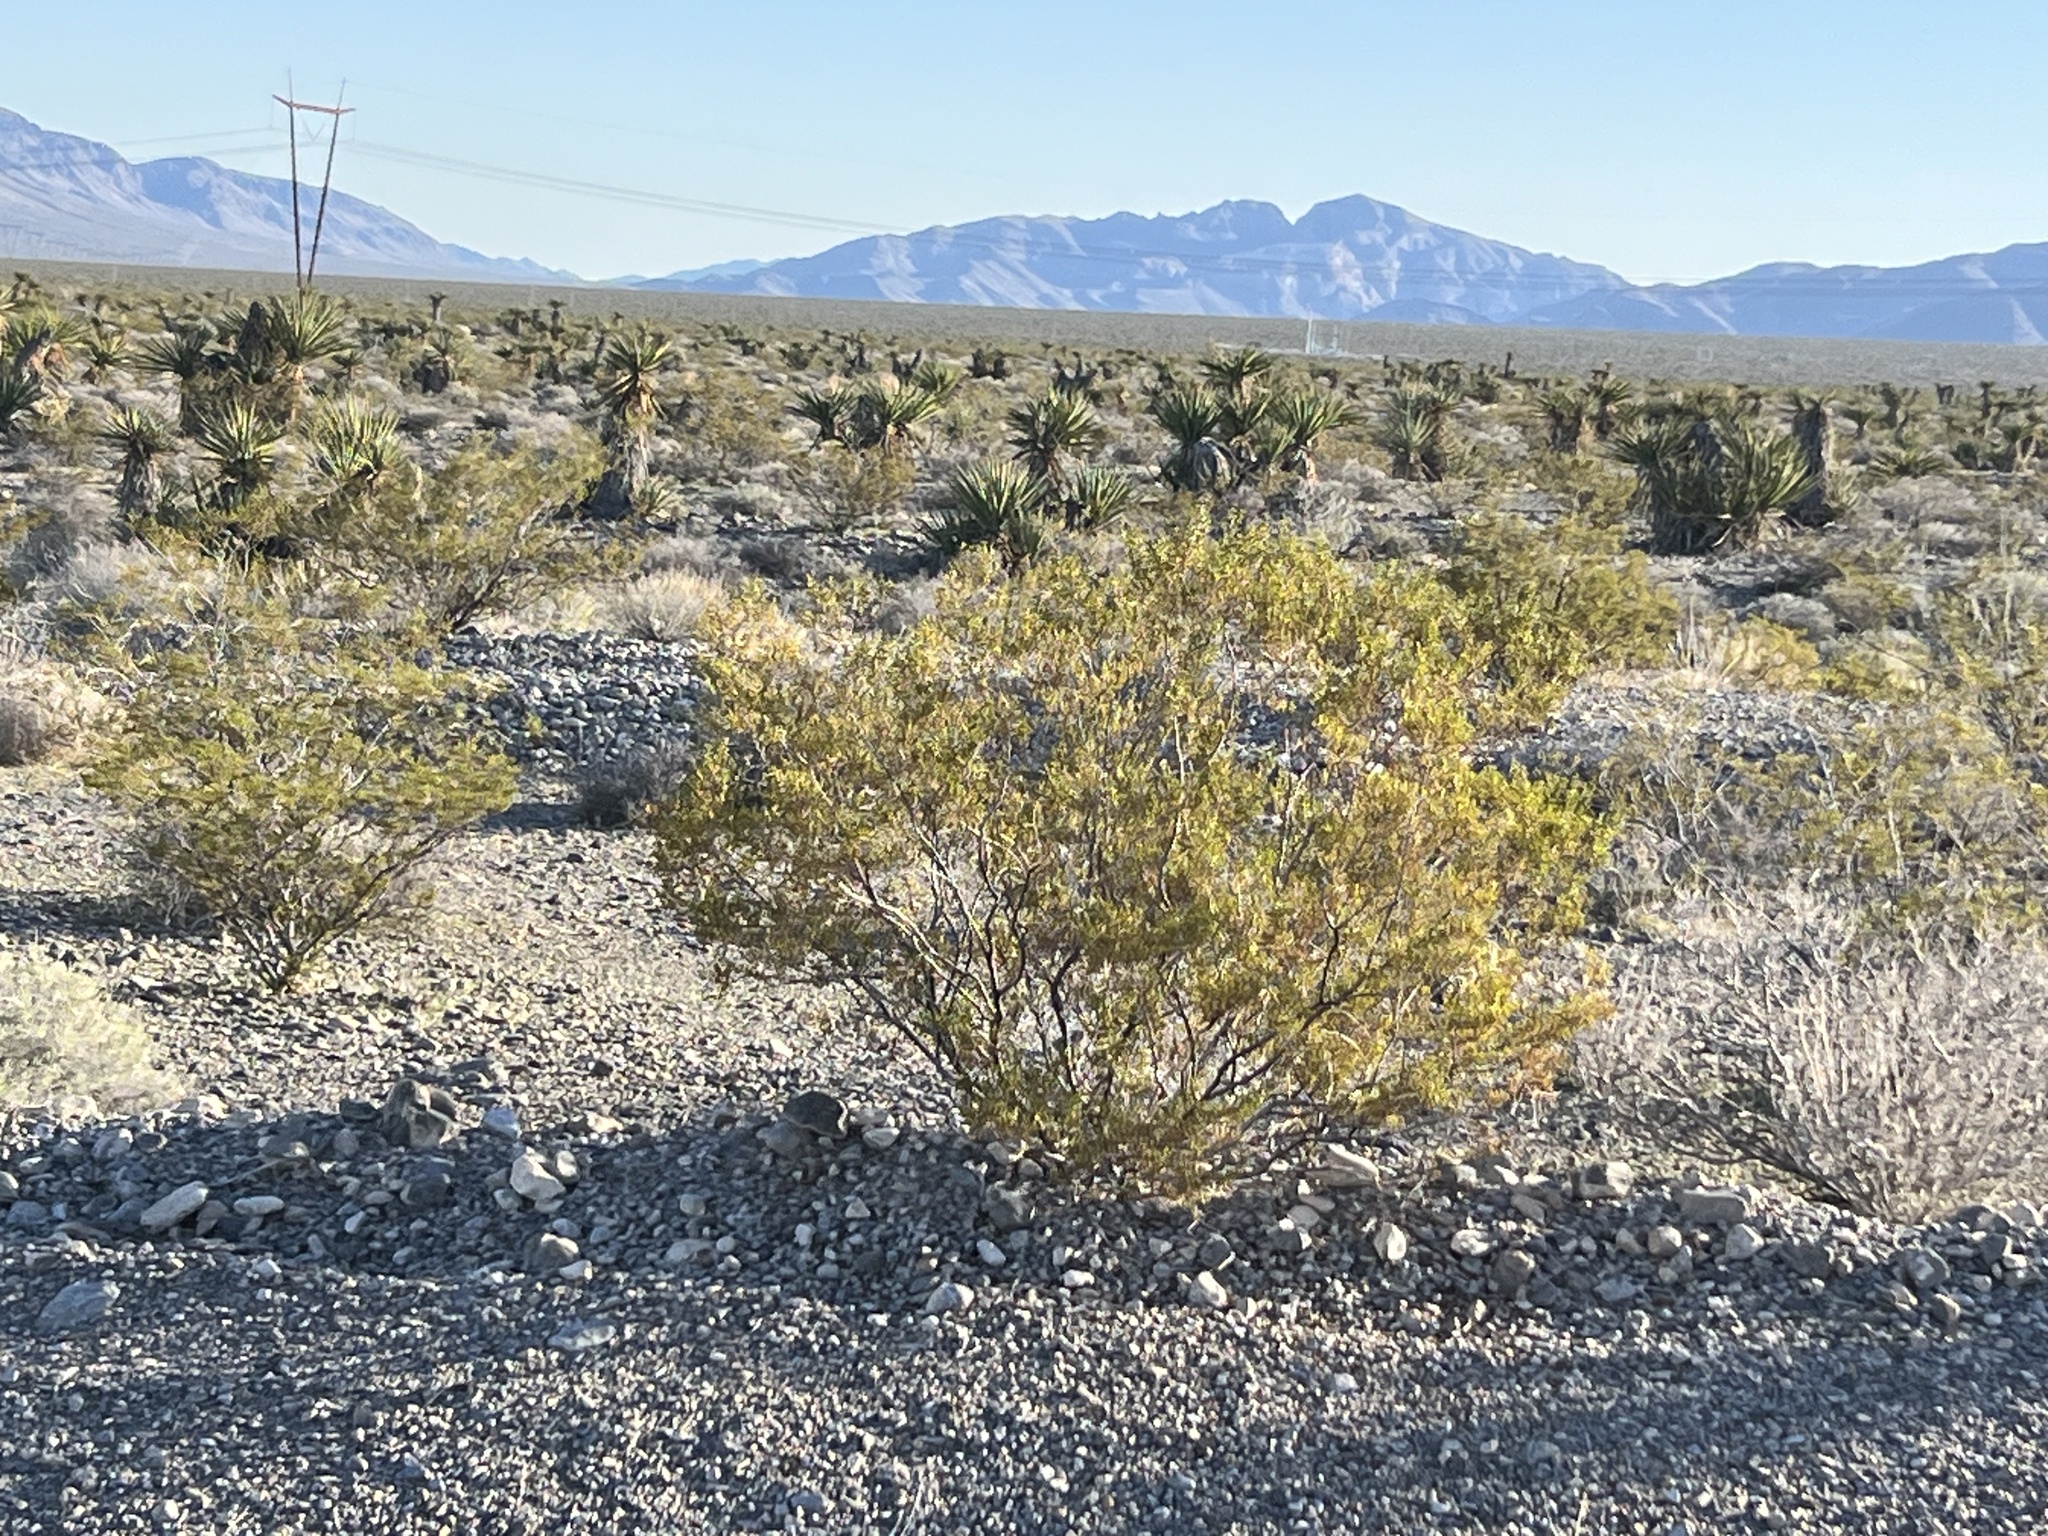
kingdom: Plantae
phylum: Tracheophyta
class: Magnoliopsida
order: Zygophyllales
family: Zygophyllaceae
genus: Larrea
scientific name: Larrea tridentata
